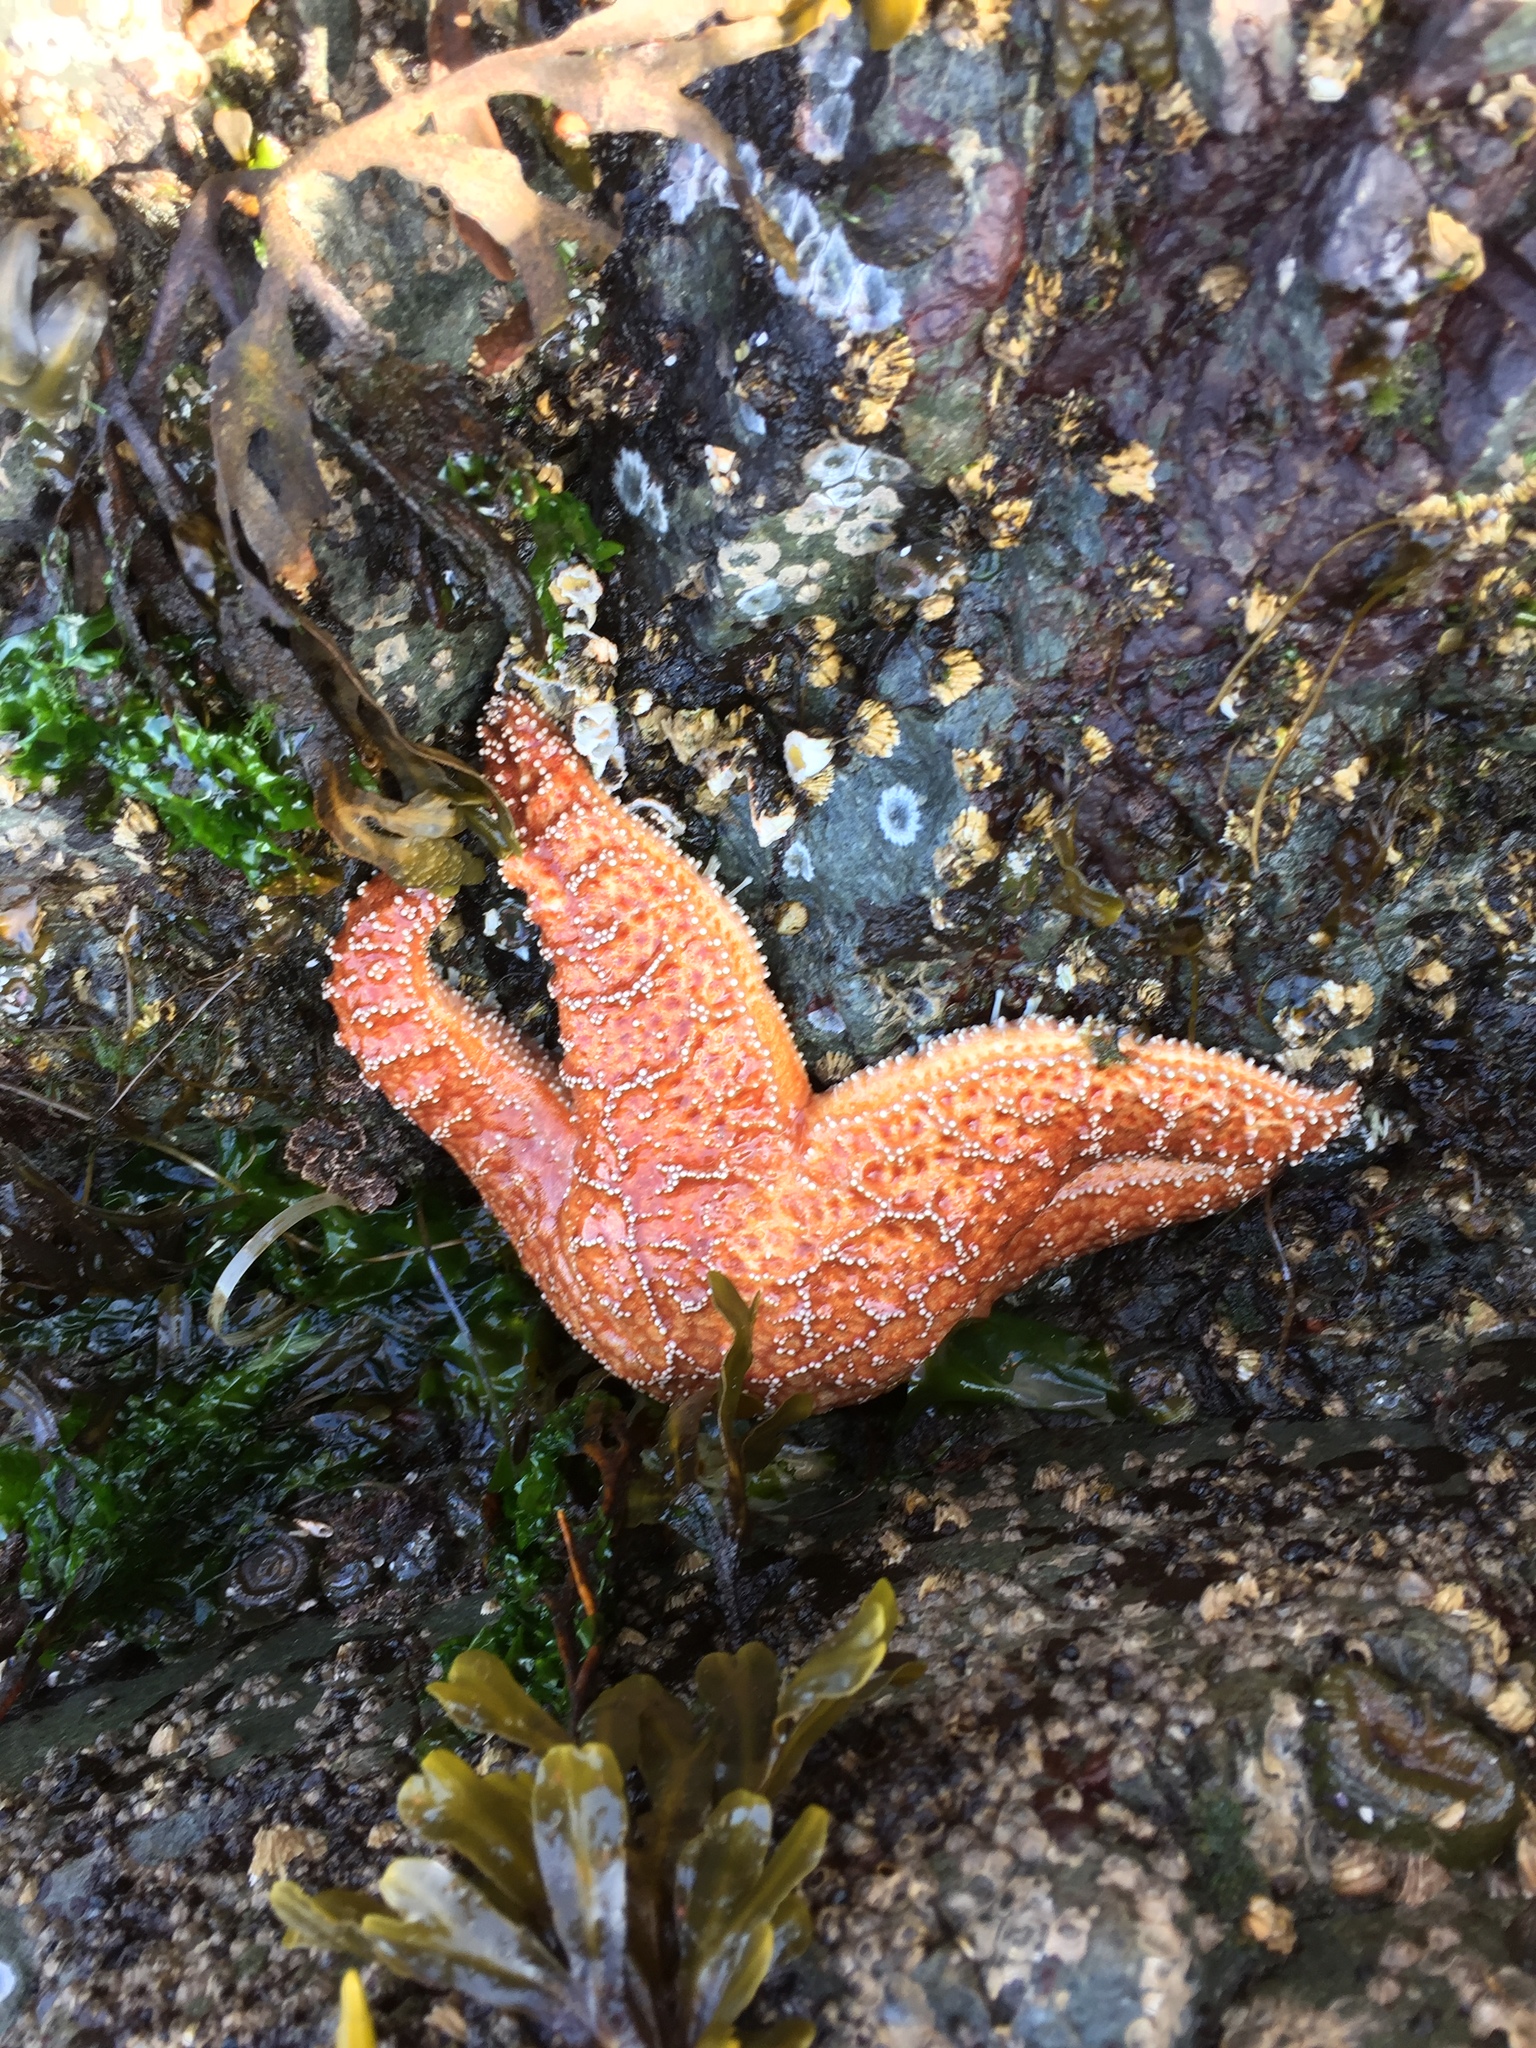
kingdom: Animalia
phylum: Echinodermata
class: Asteroidea
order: Forcipulatida
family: Asteriidae
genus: Pisaster
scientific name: Pisaster ochraceus
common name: Ochre stars
